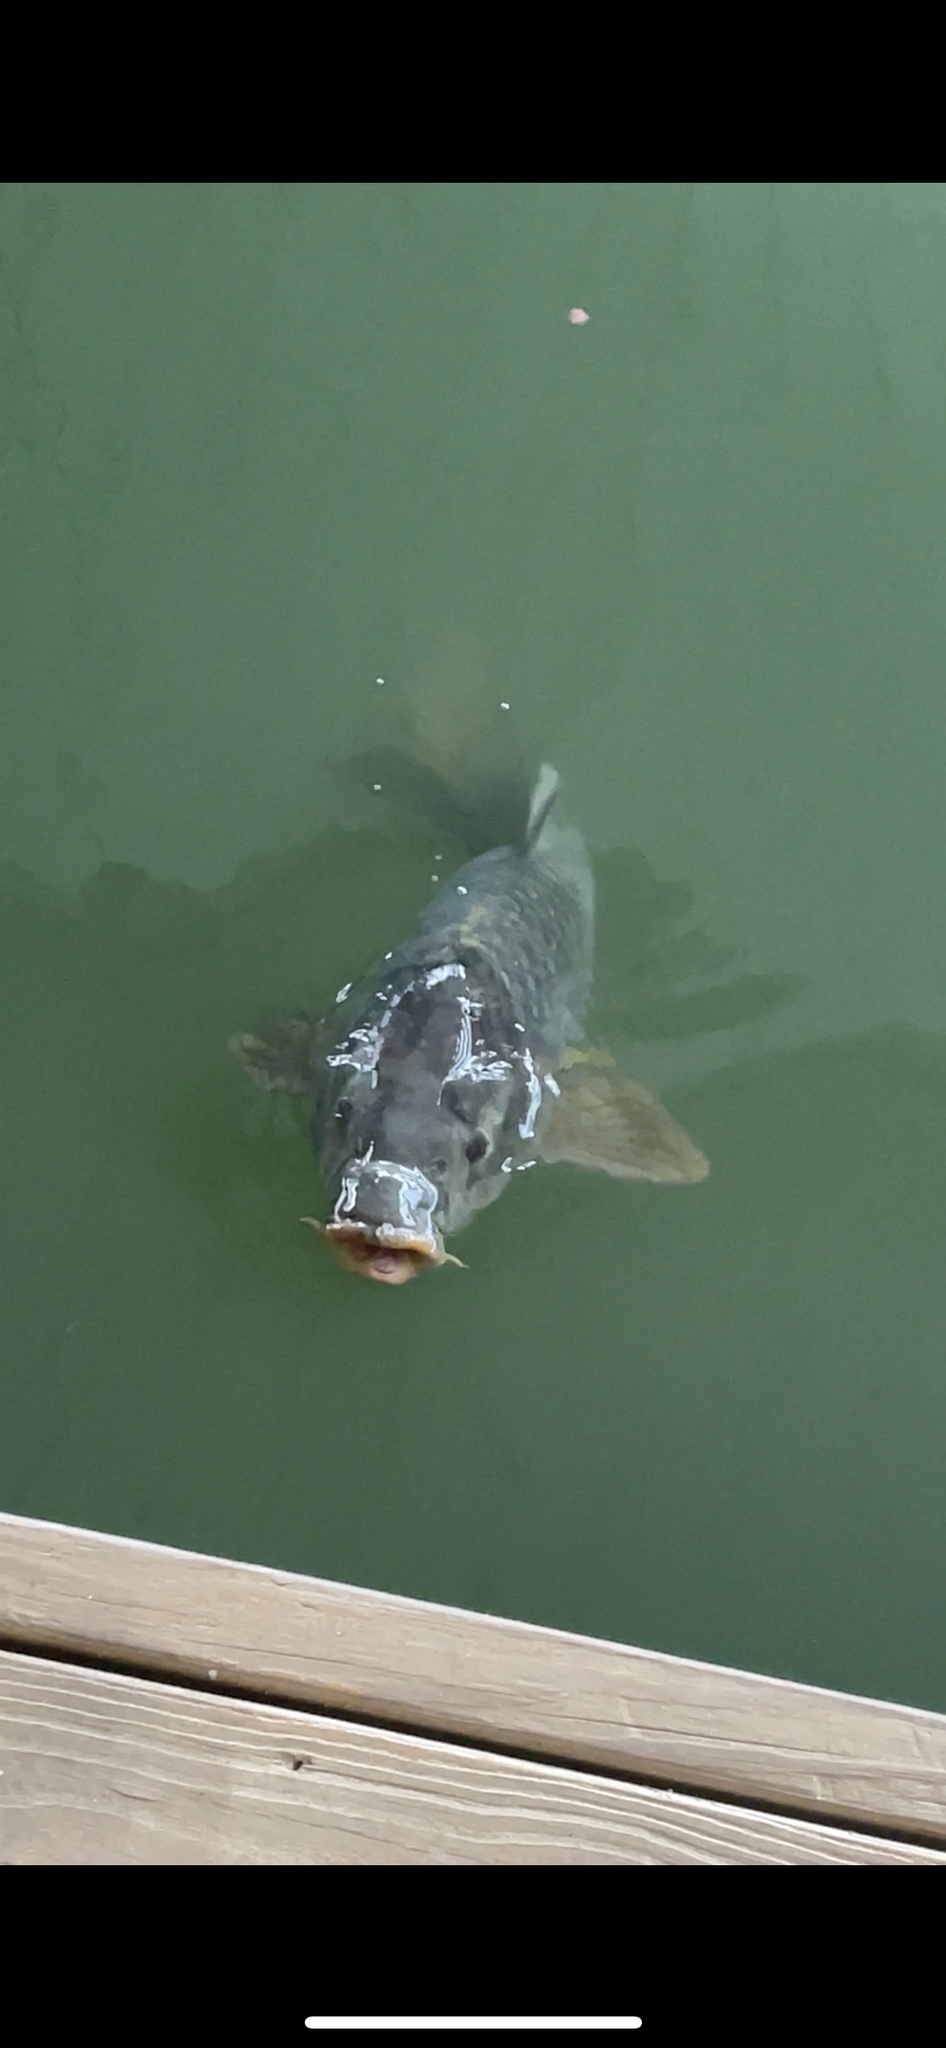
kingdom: Animalia
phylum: Chordata
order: Cypriniformes
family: Cyprinidae
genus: Cyprinus
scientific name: Cyprinus carpio
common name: Common carp
